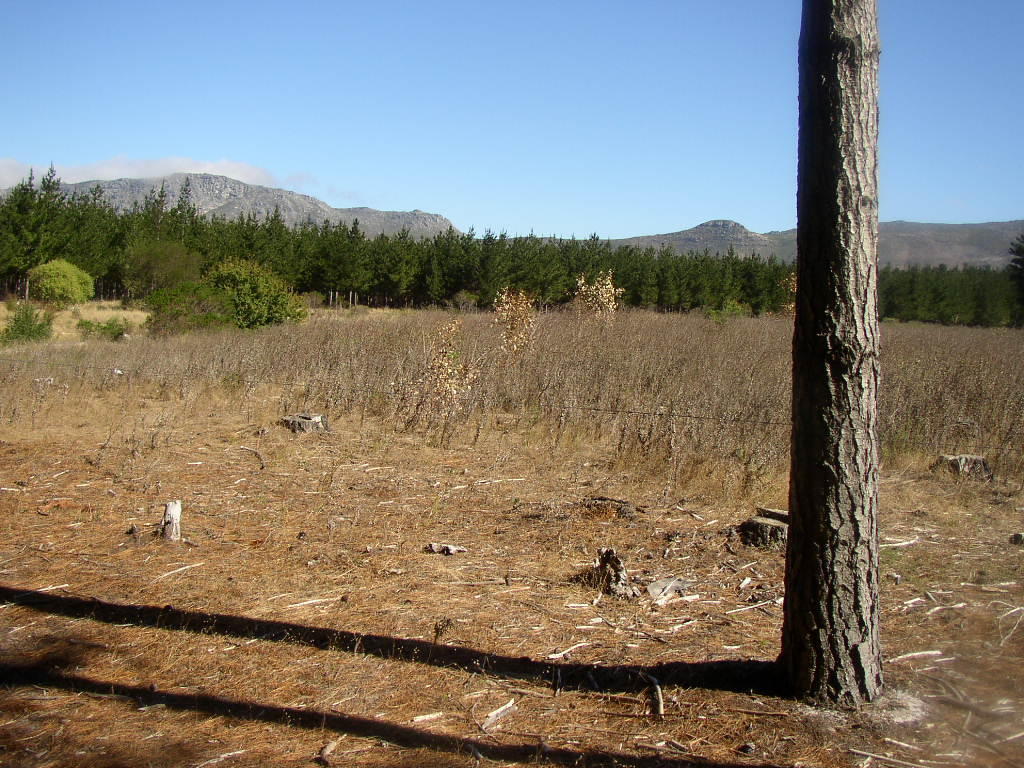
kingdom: Plantae
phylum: Tracheophyta
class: Magnoliopsida
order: Asterales
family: Asteraceae
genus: Senecio
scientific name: Senecio pterophorus
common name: Shoddy ragwort
